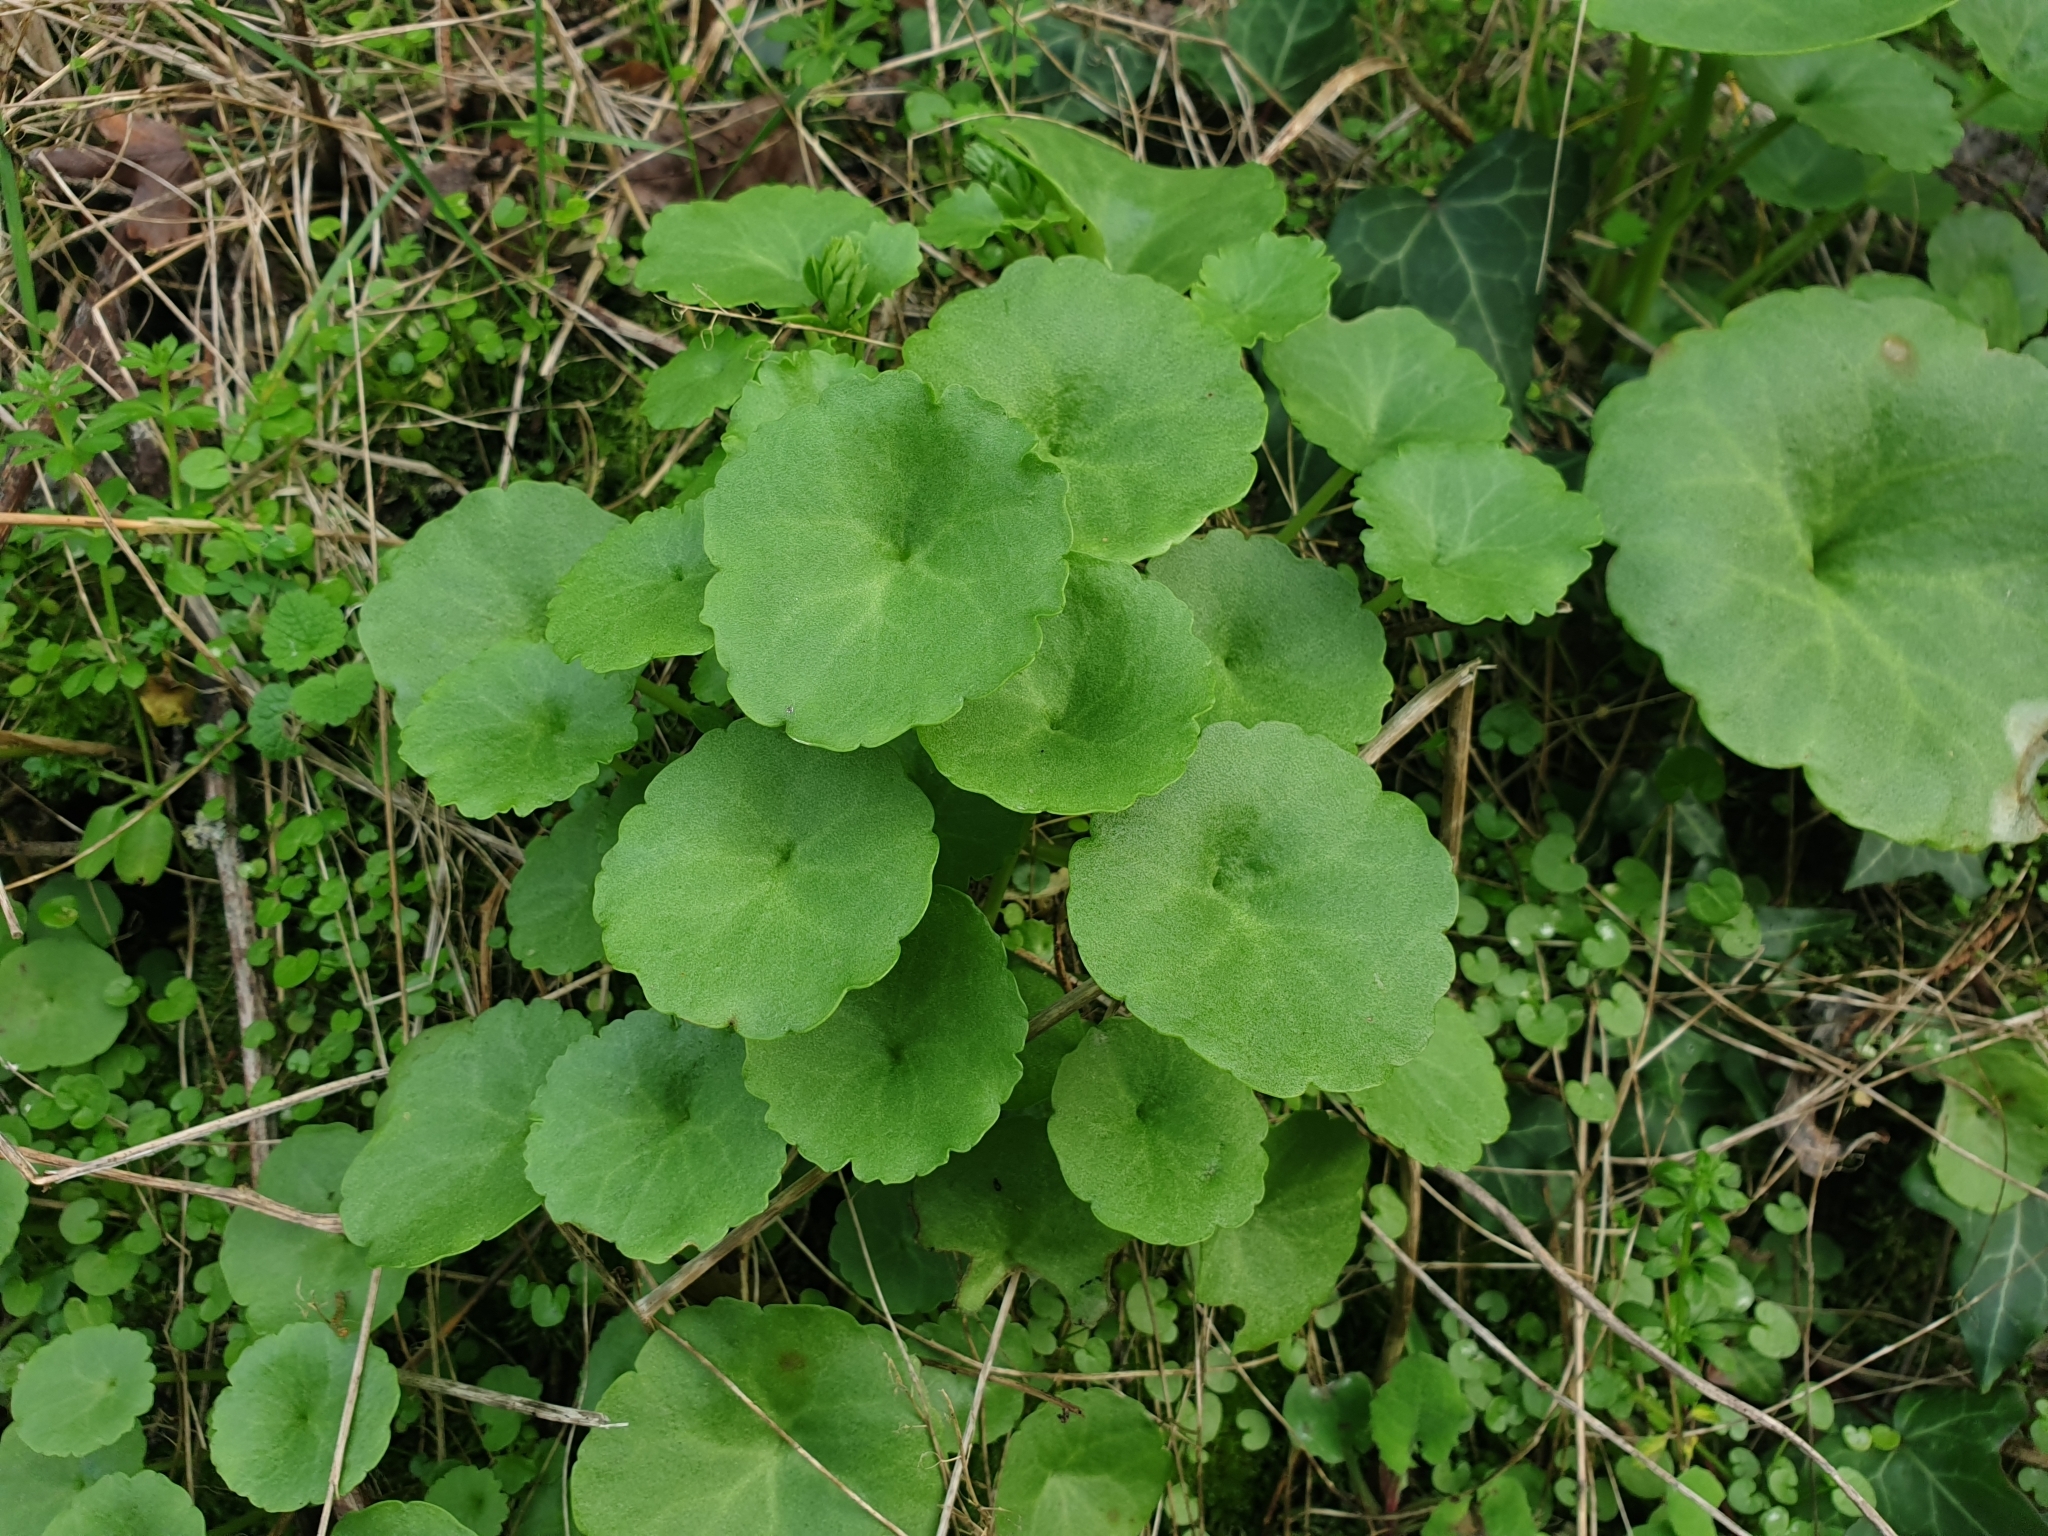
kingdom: Plantae
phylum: Tracheophyta
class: Magnoliopsida
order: Saxifragales
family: Crassulaceae
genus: Umbilicus
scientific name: Umbilicus rupestris
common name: Navelwort
